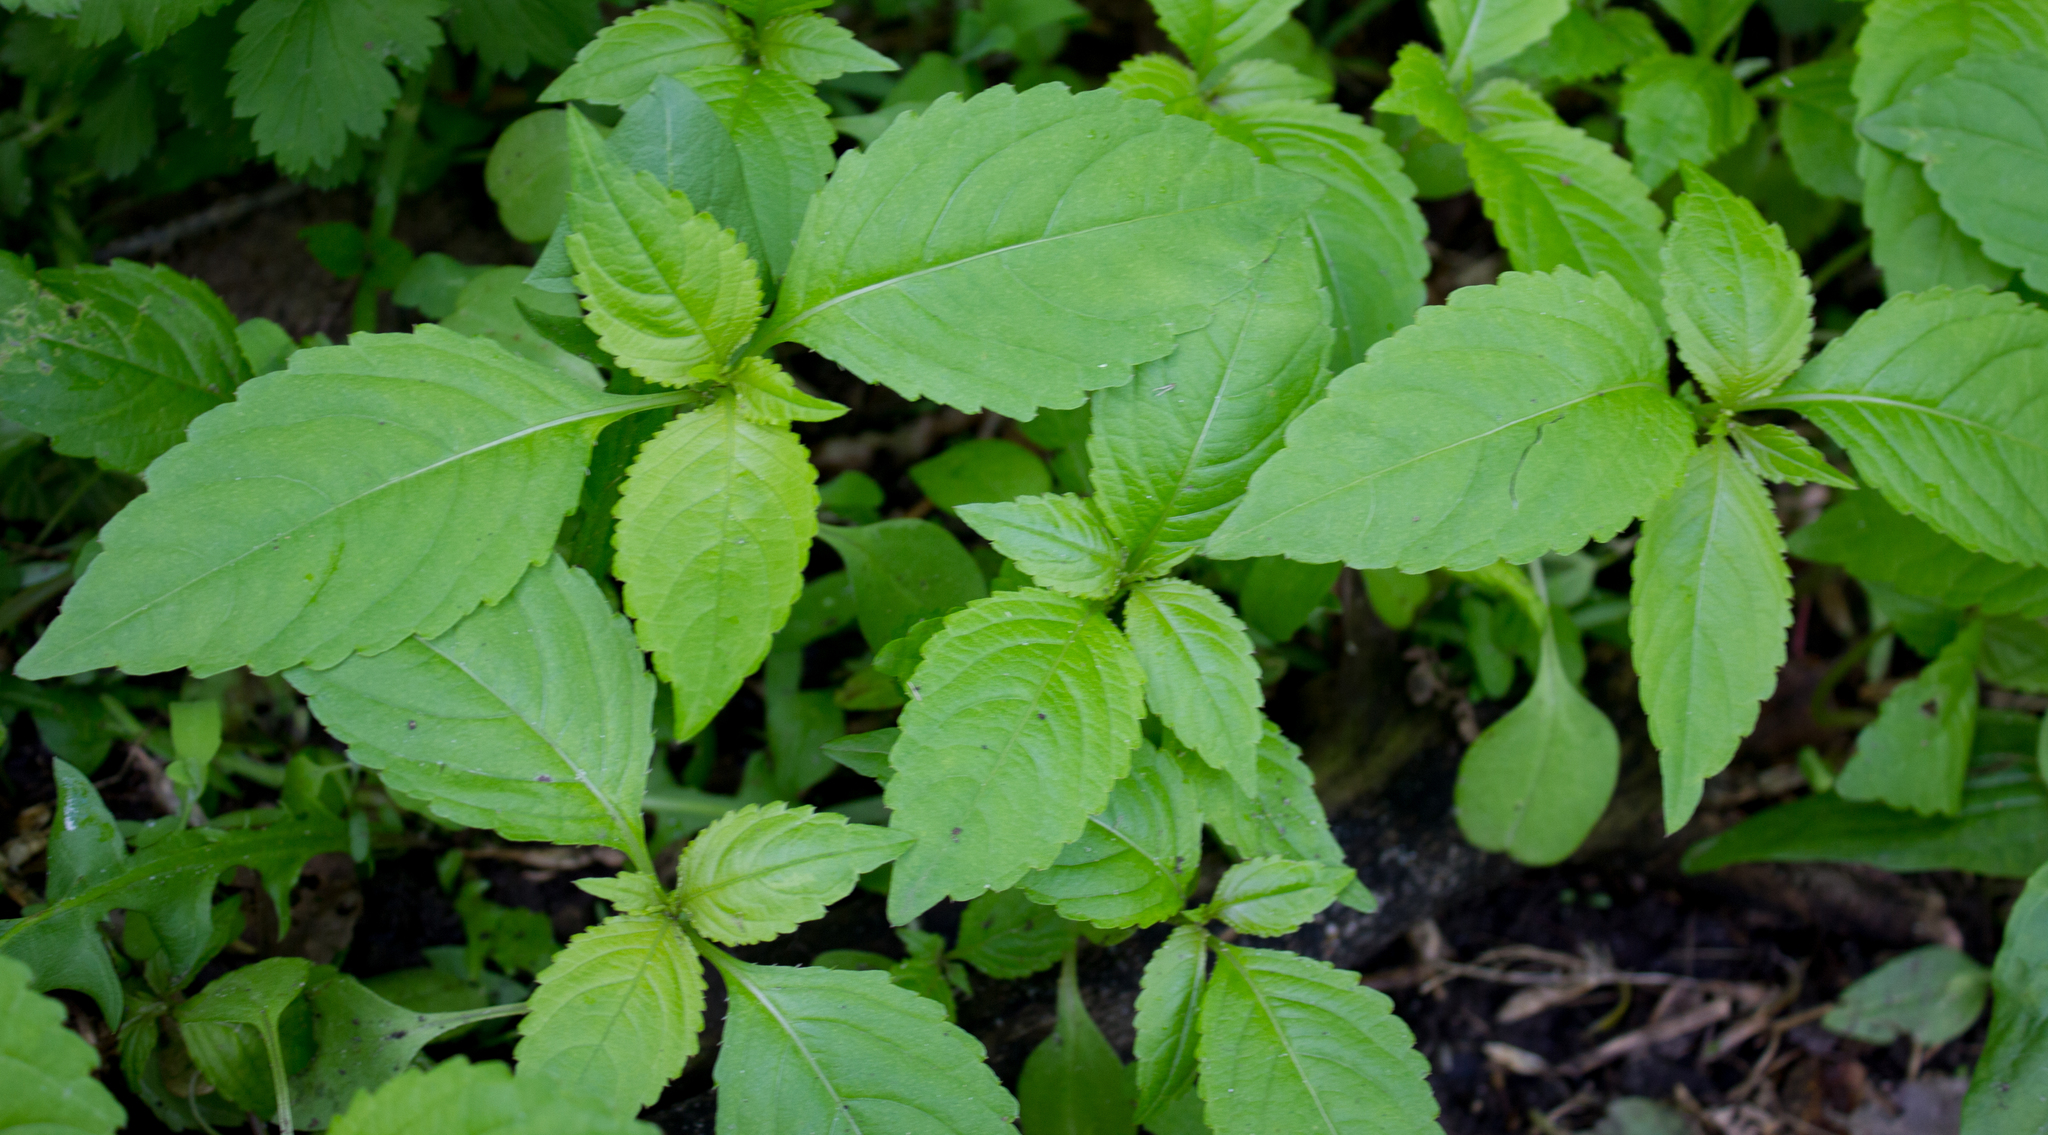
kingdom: Plantae
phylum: Tracheophyta
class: Magnoliopsida
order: Ericales
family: Balsaminaceae
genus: Impatiens
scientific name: Impatiens parviflora
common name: Small balsam
